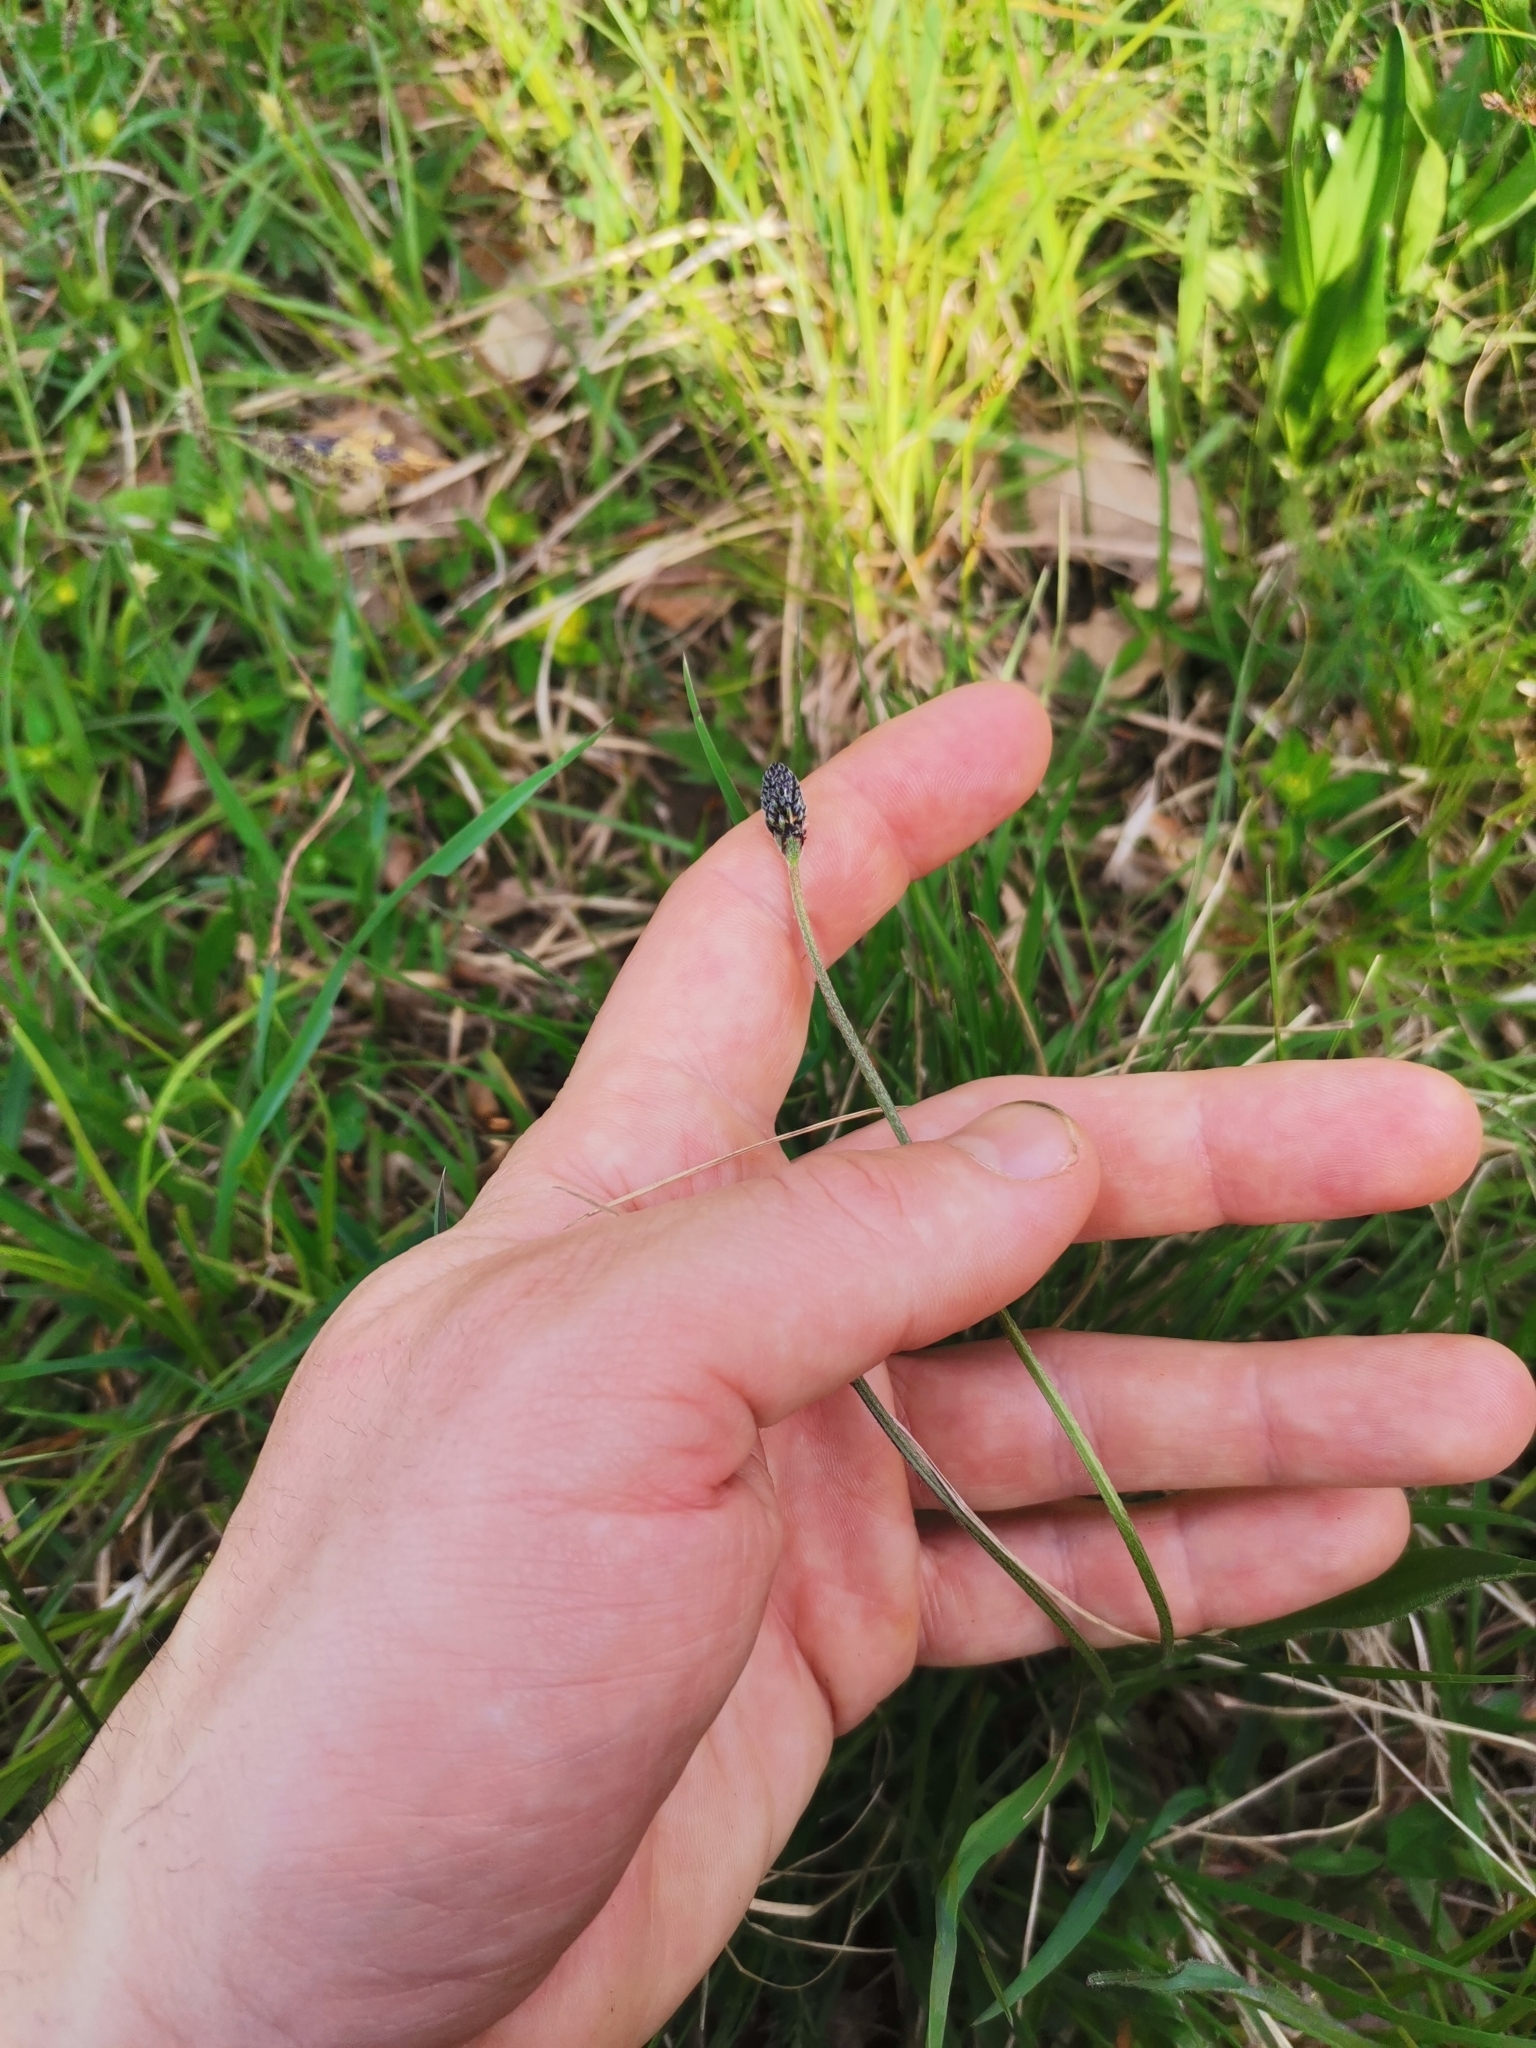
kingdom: Plantae
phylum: Tracheophyta
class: Magnoliopsida
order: Lamiales
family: Plantaginaceae
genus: Plantago
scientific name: Plantago lanceolata
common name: Ribwort plantain
